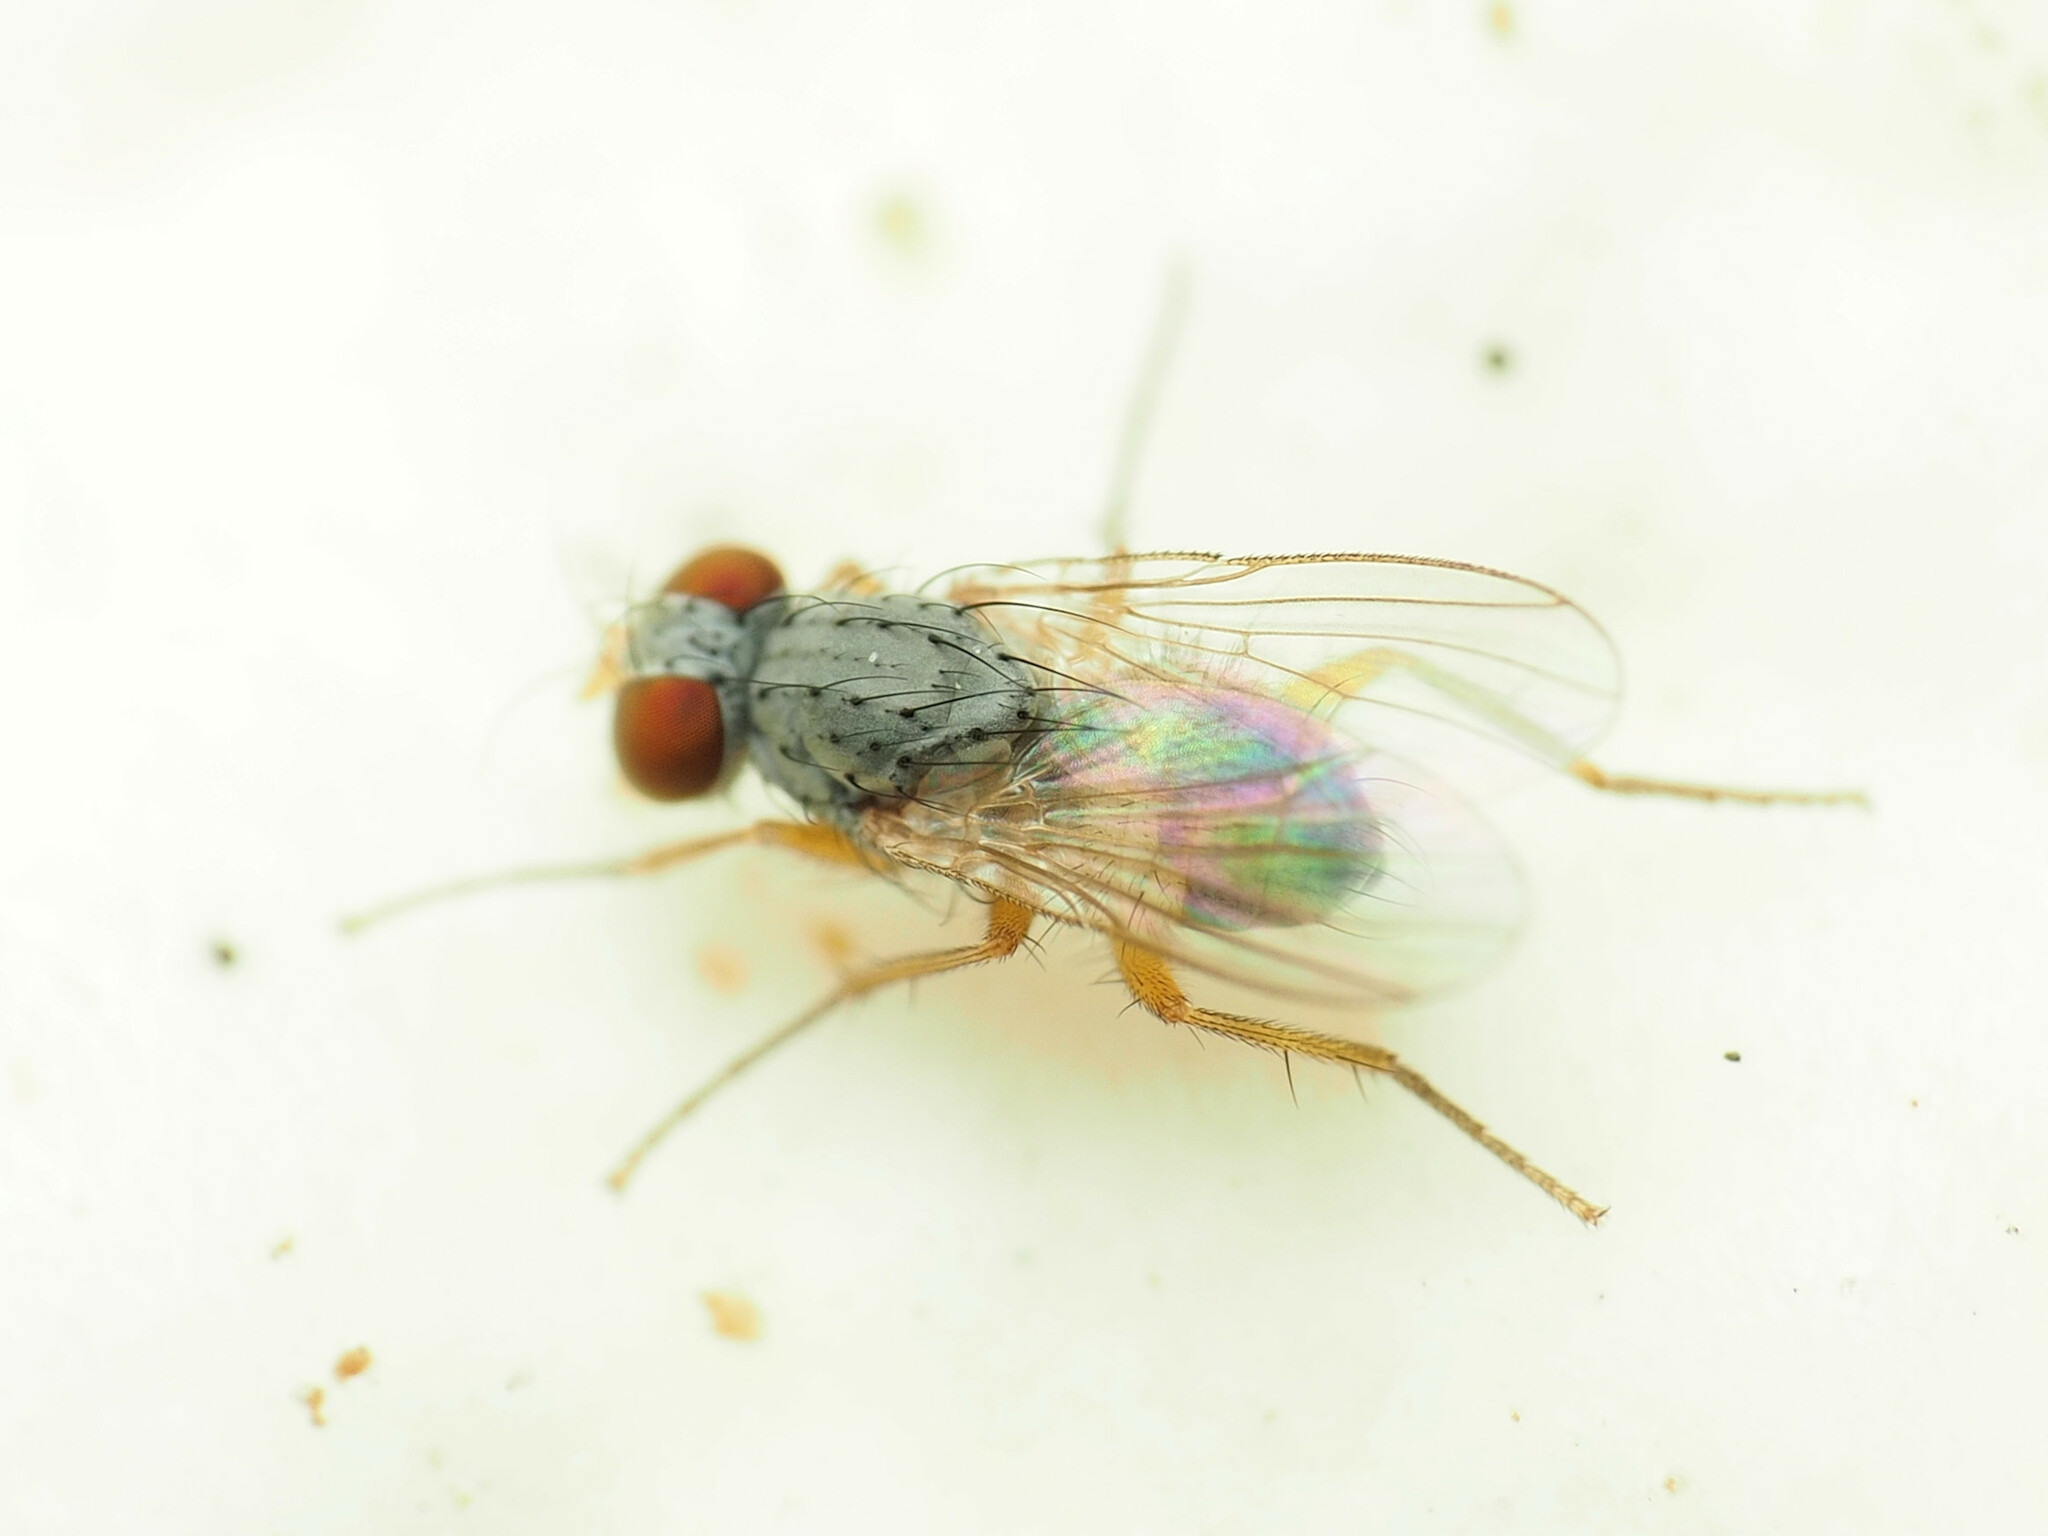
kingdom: Animalia
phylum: Arthropoda
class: Insecta
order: Diptera
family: Muscidae
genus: Neodexiopsis
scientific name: Neodexiopsis calopyga
